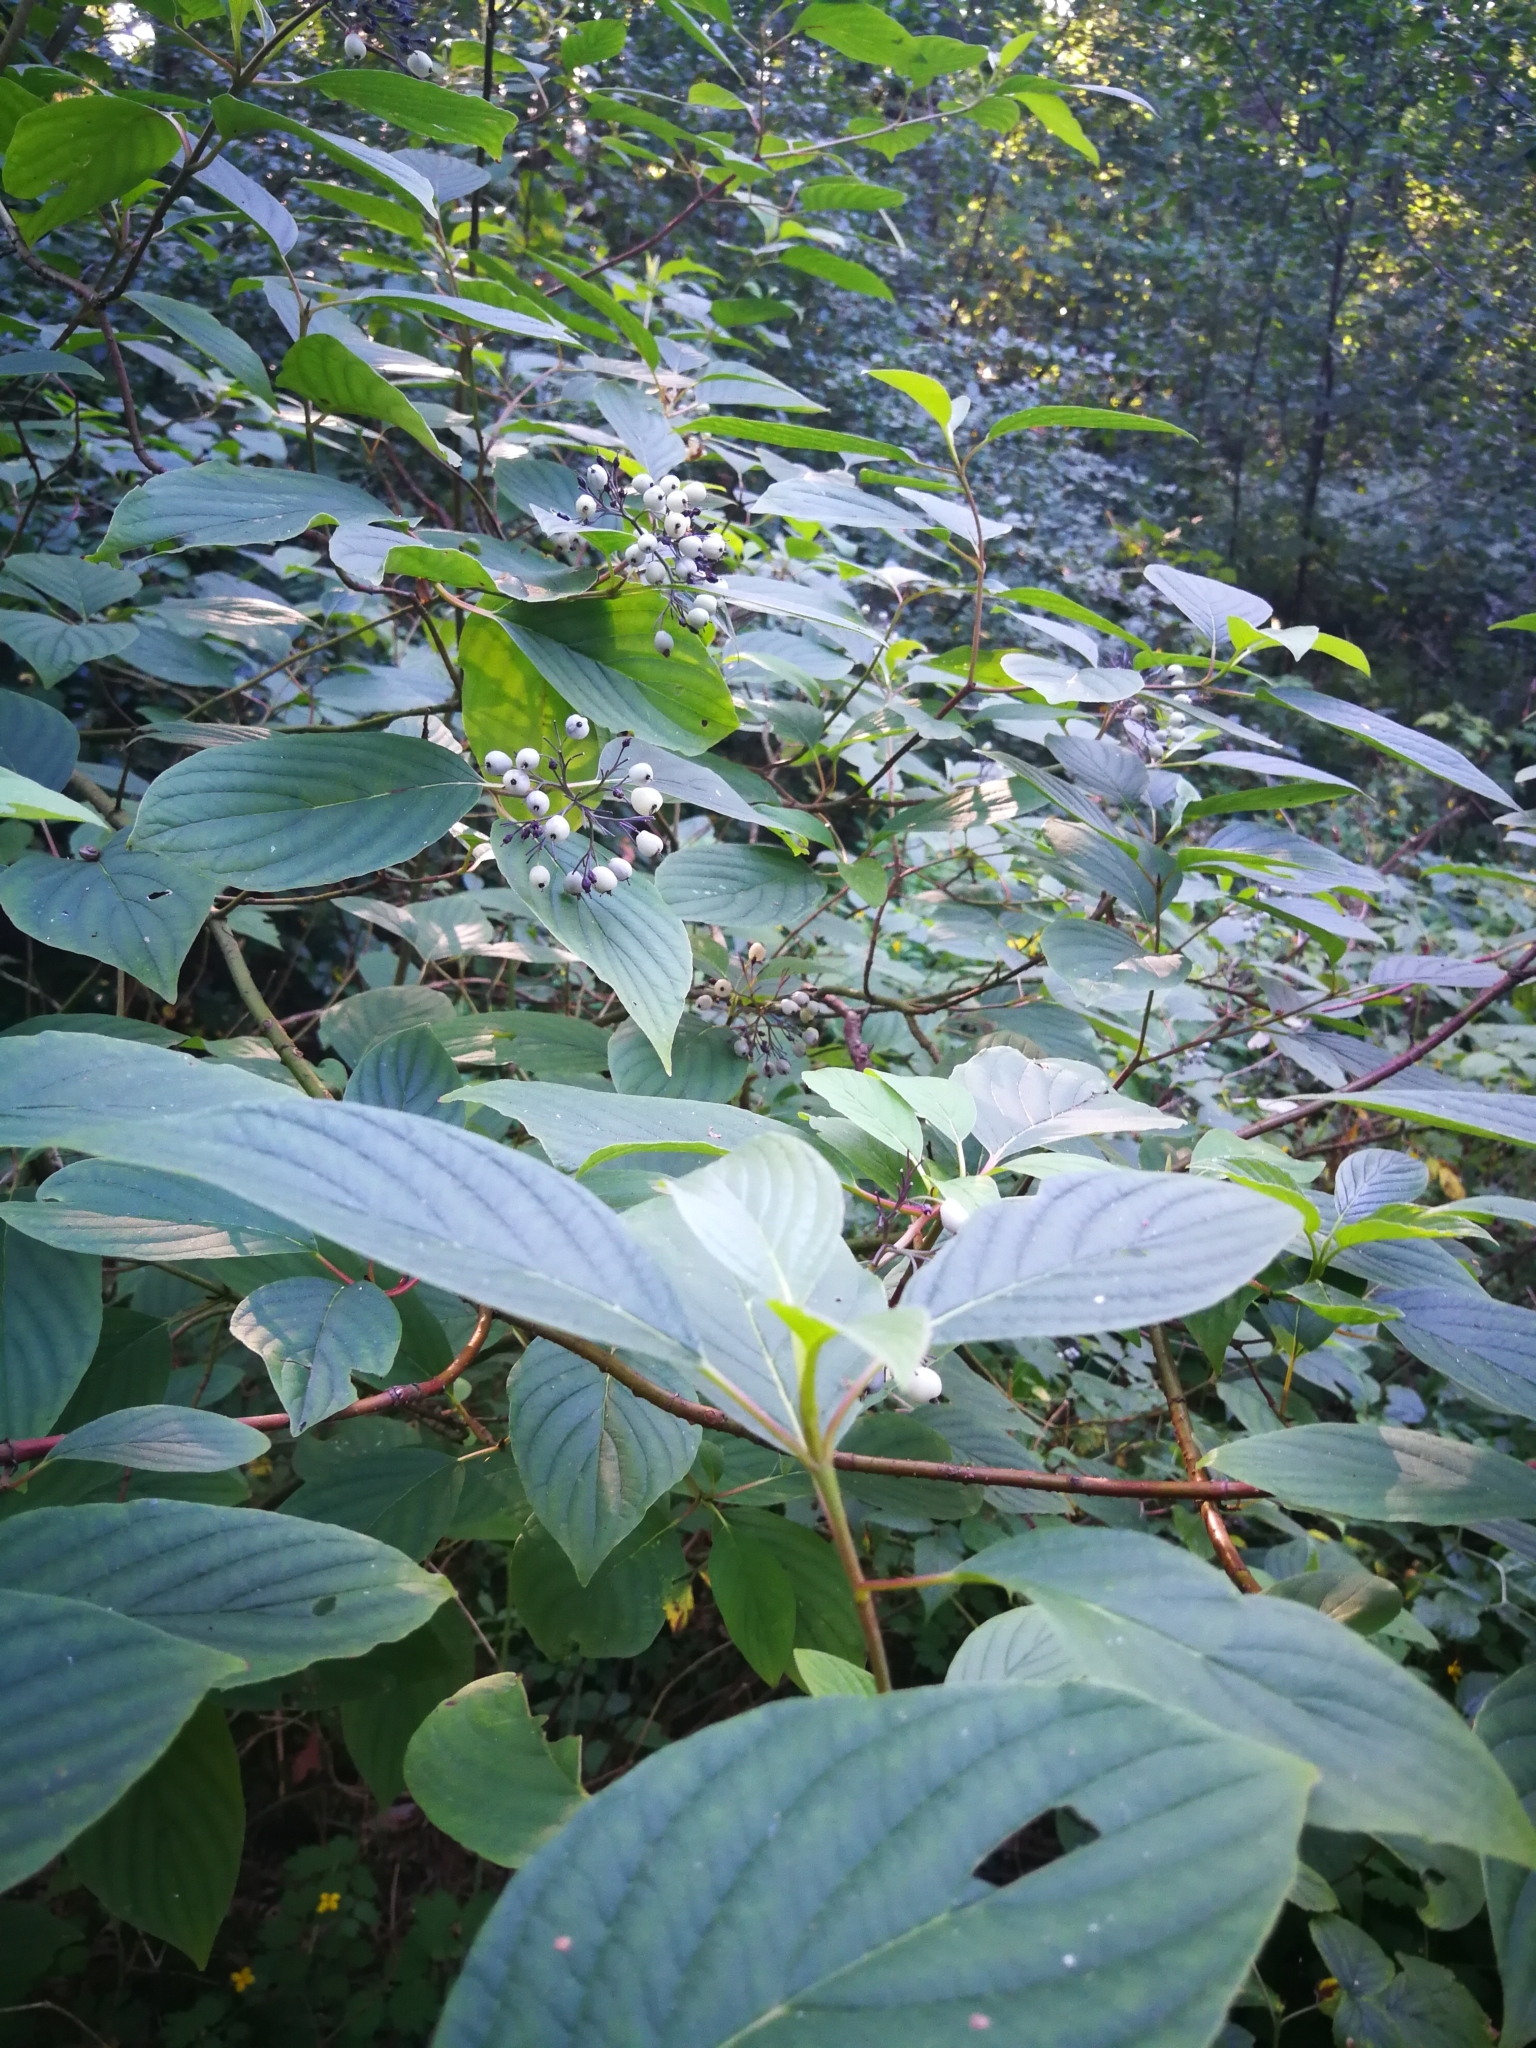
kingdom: Plantae
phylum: Tracheophyta
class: Magnoliopsida
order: Cornales
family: Cornaceae
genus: Cornus
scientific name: Cornus alba
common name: White dogwood
